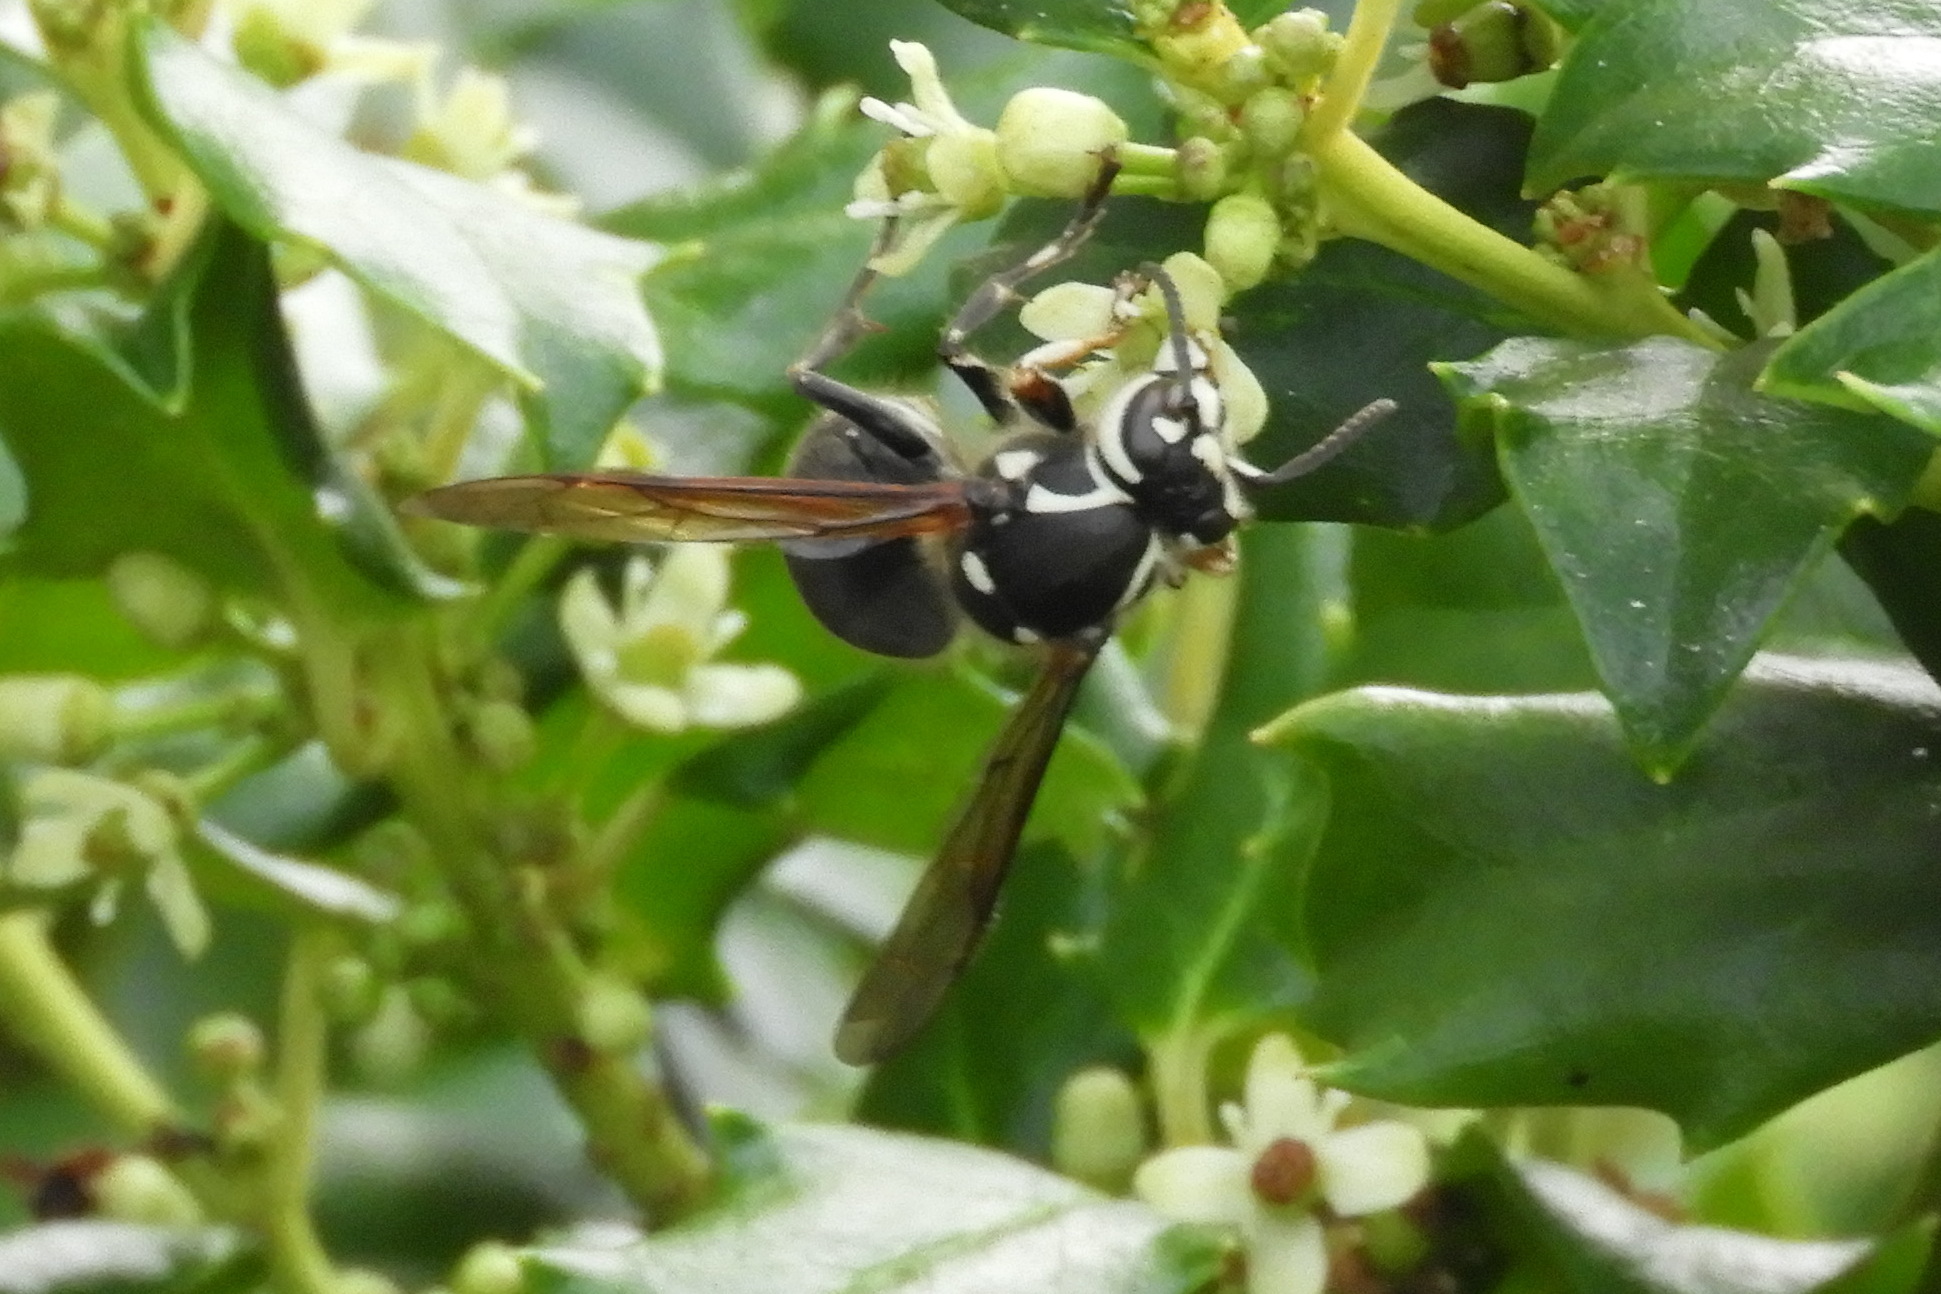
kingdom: Animalia
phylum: Arthropoda
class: Insecta
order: Hymenoptera
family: Vespidae
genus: Dolichovespula
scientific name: Dolichovespula maculata
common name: Bald-faced hornet
